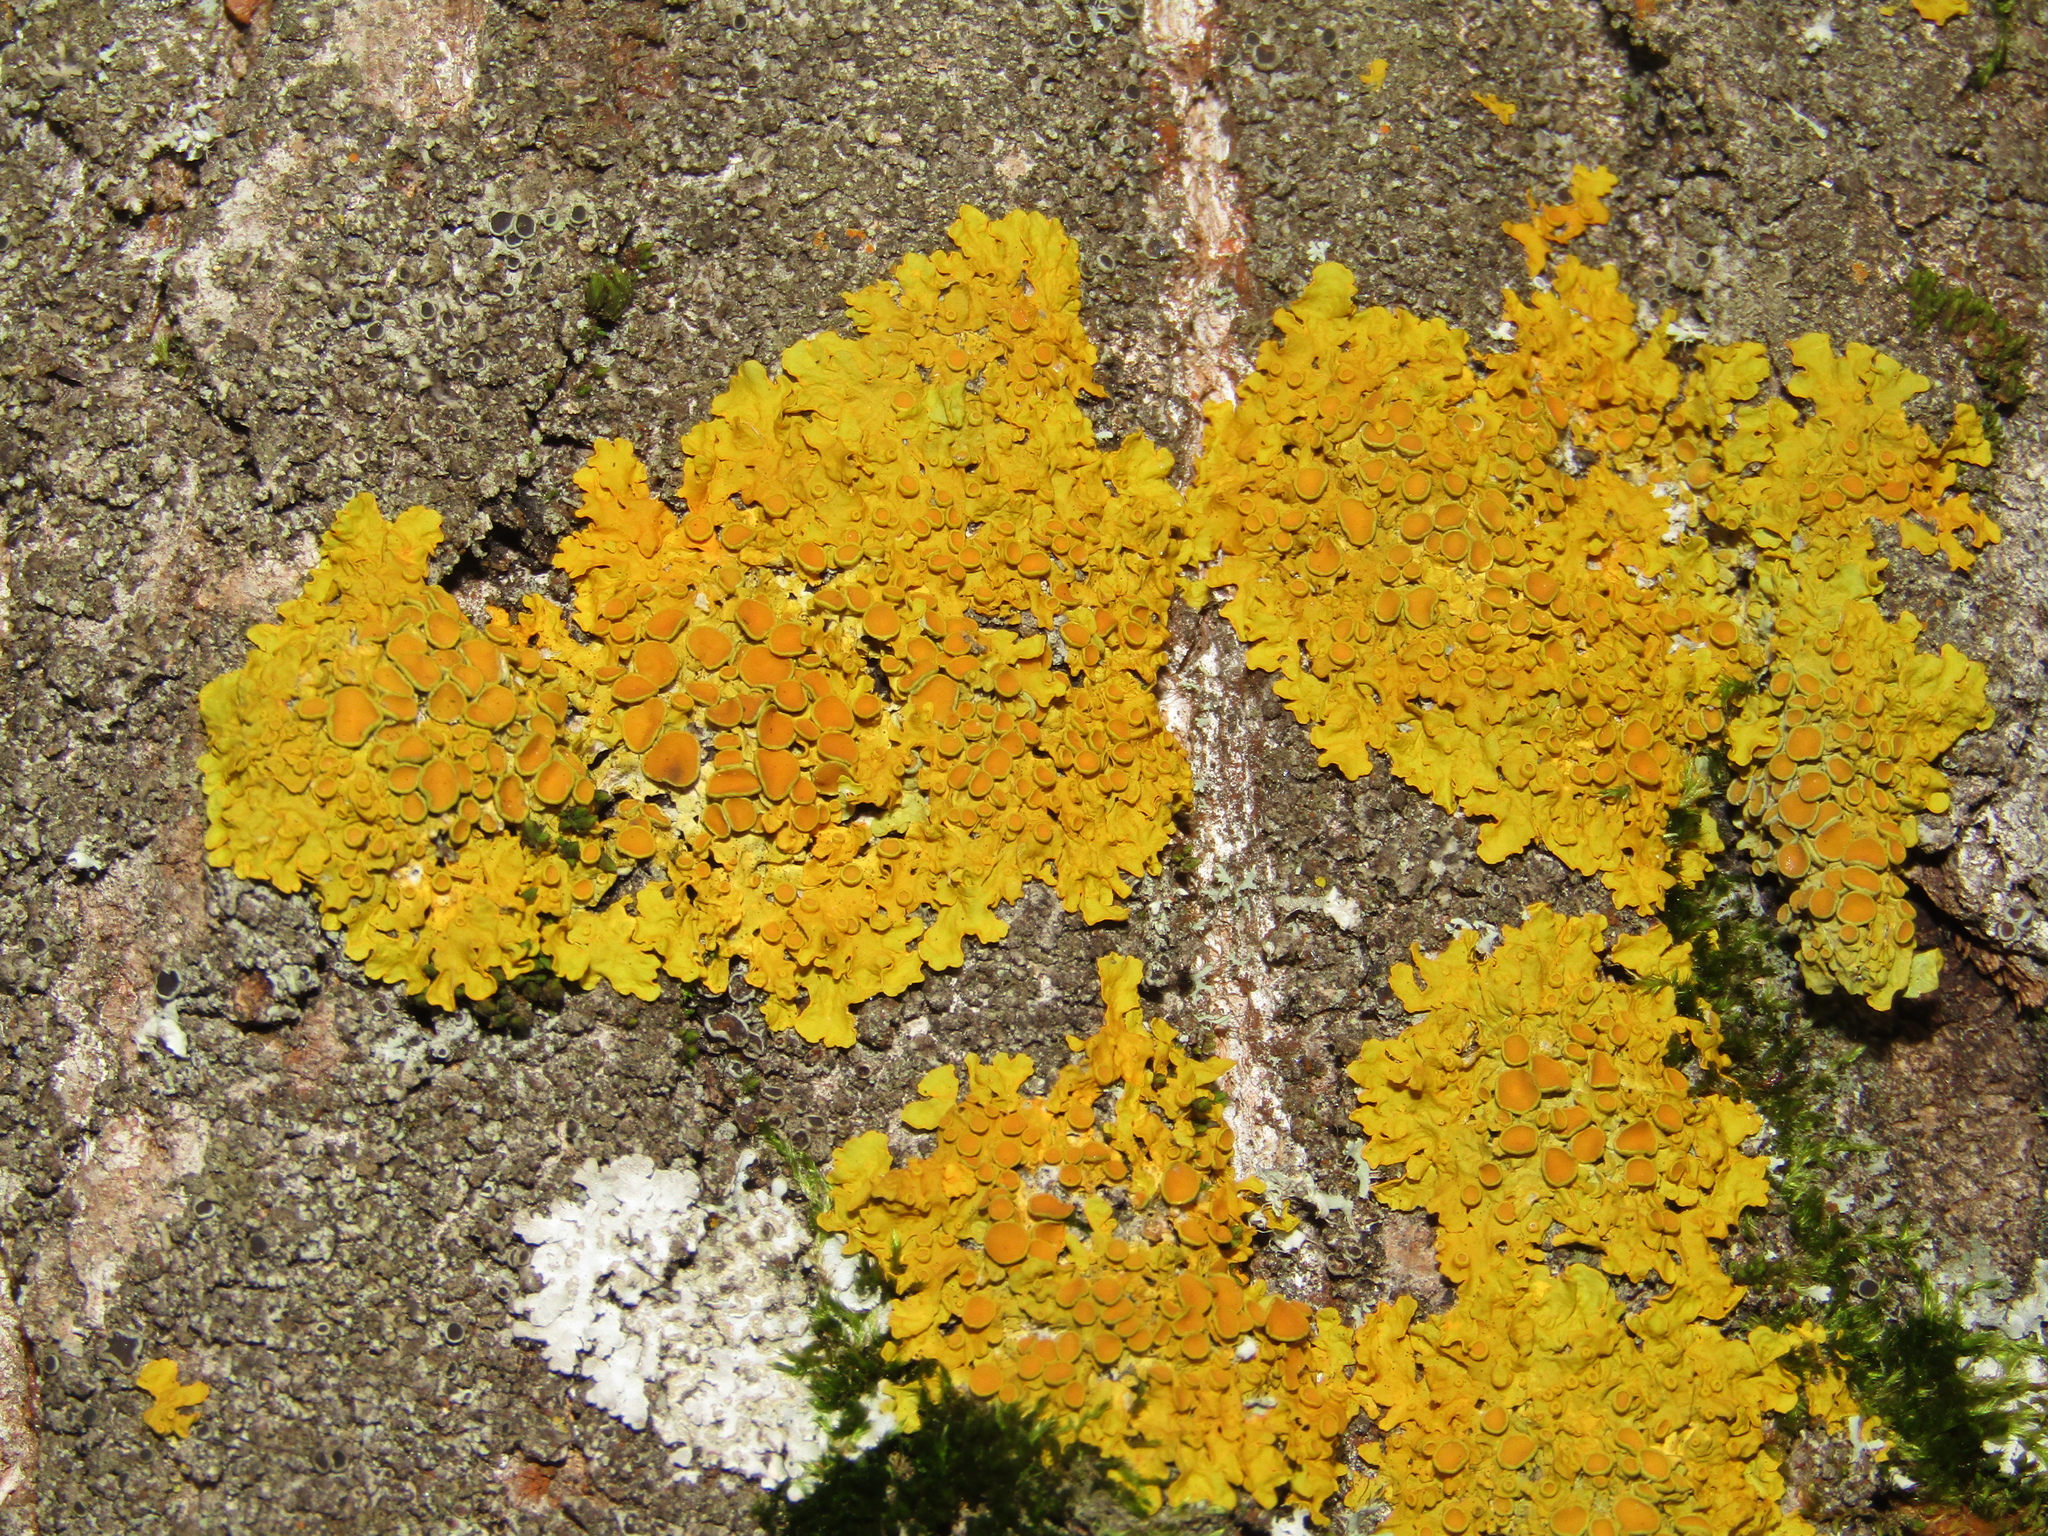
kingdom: Fungi
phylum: Ascomycota
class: Lecanoromycetes
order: Teloschistales
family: Teloschistaceae
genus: Xanthoria
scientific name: Xanthoria parietina
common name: Common orange lichen
